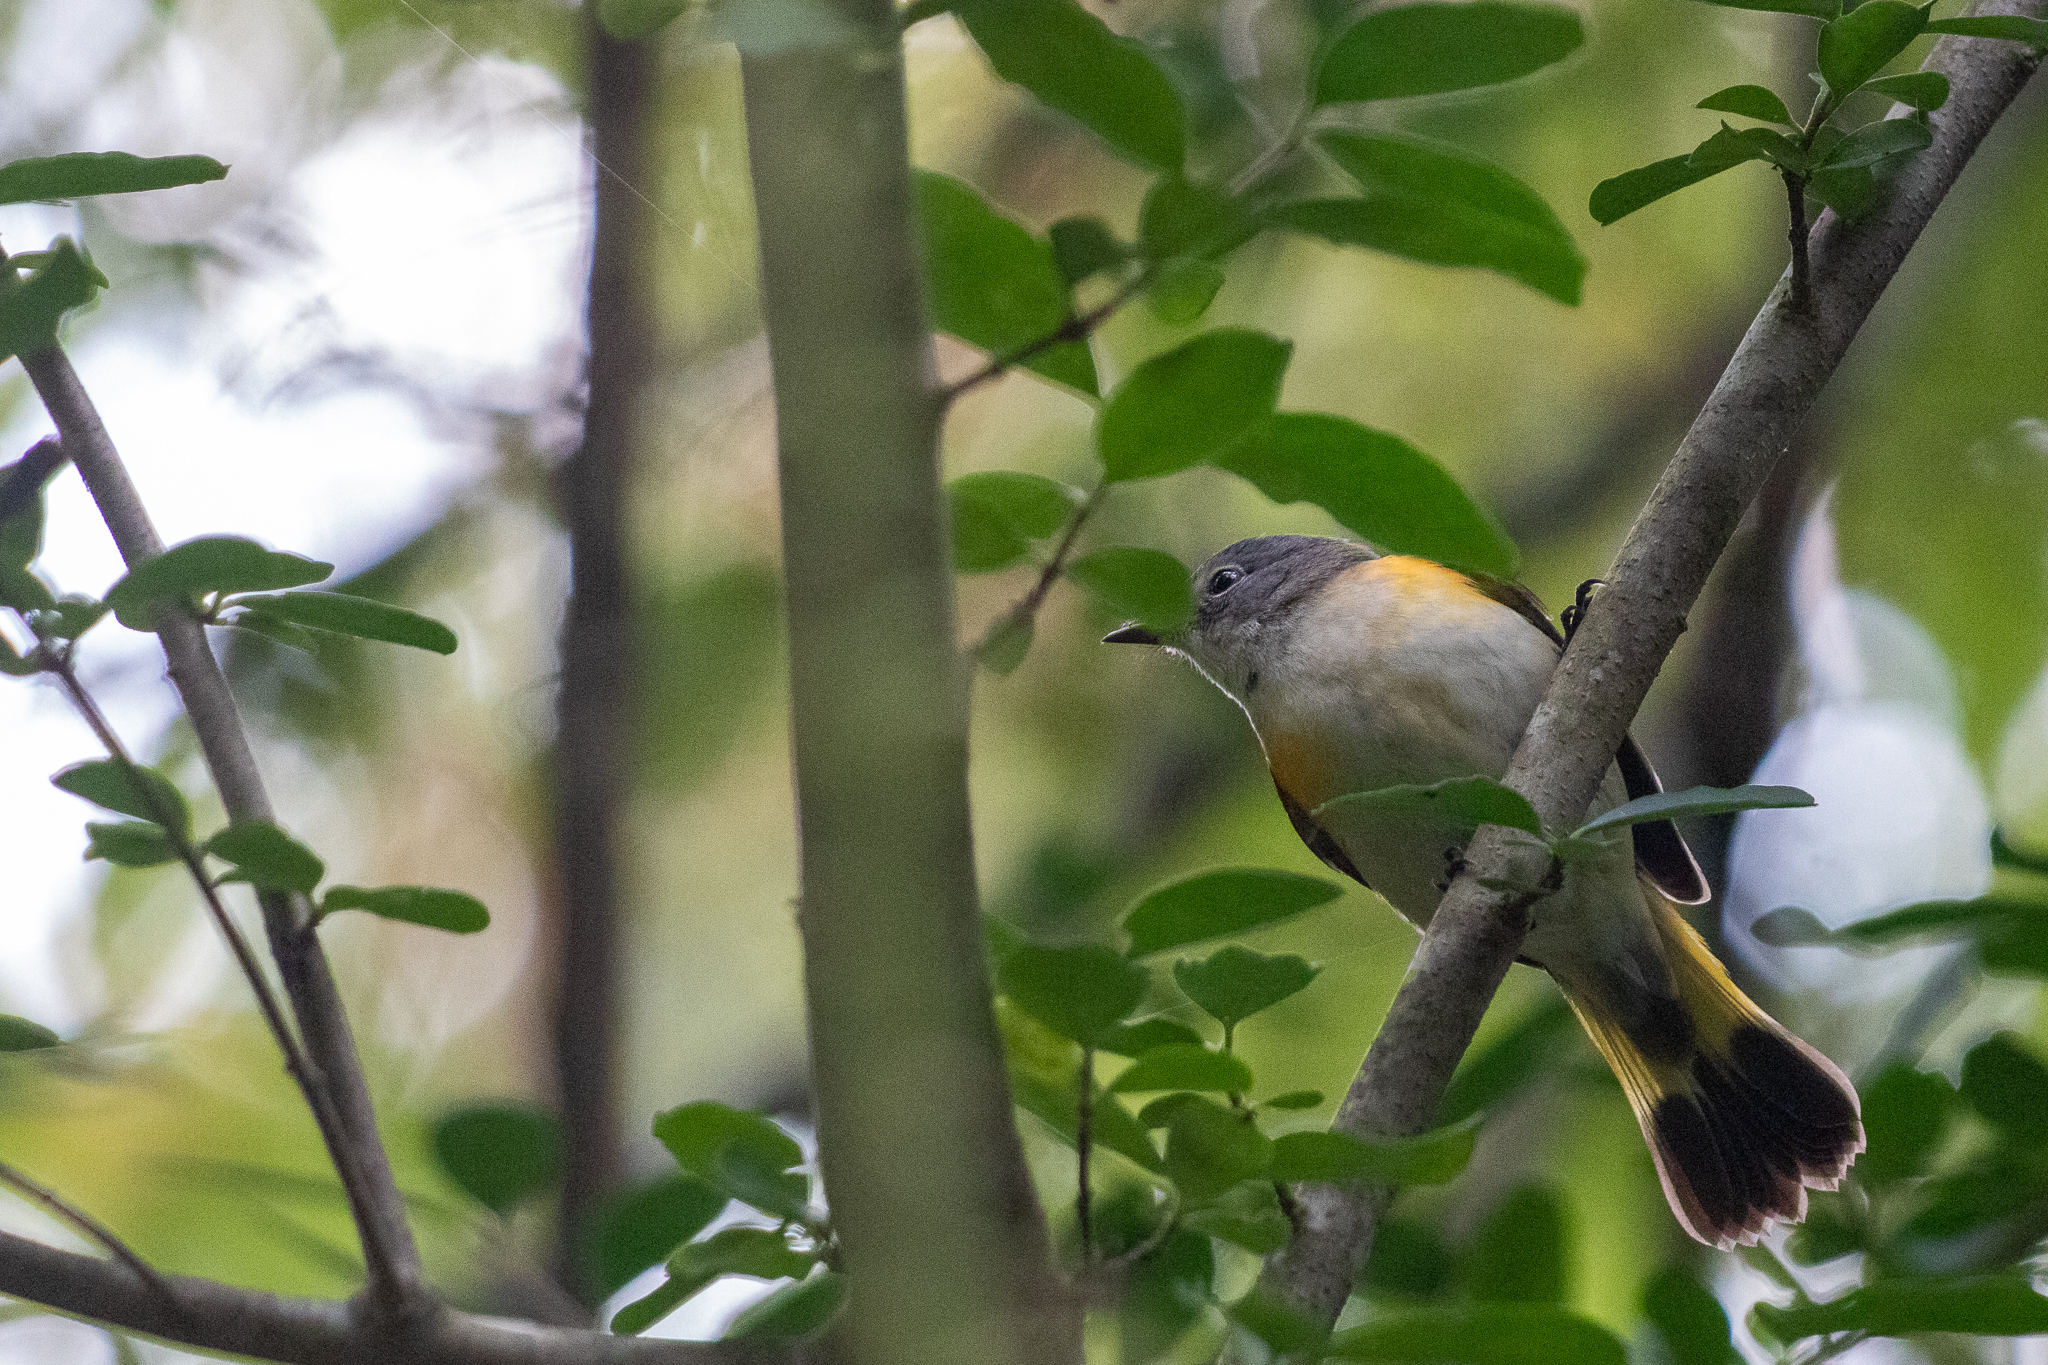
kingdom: Animalia
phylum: Chordata
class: Aves
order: Passeriformes
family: Parulidae
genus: Setophaga
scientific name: Setophaga ruticilla
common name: American redstart
